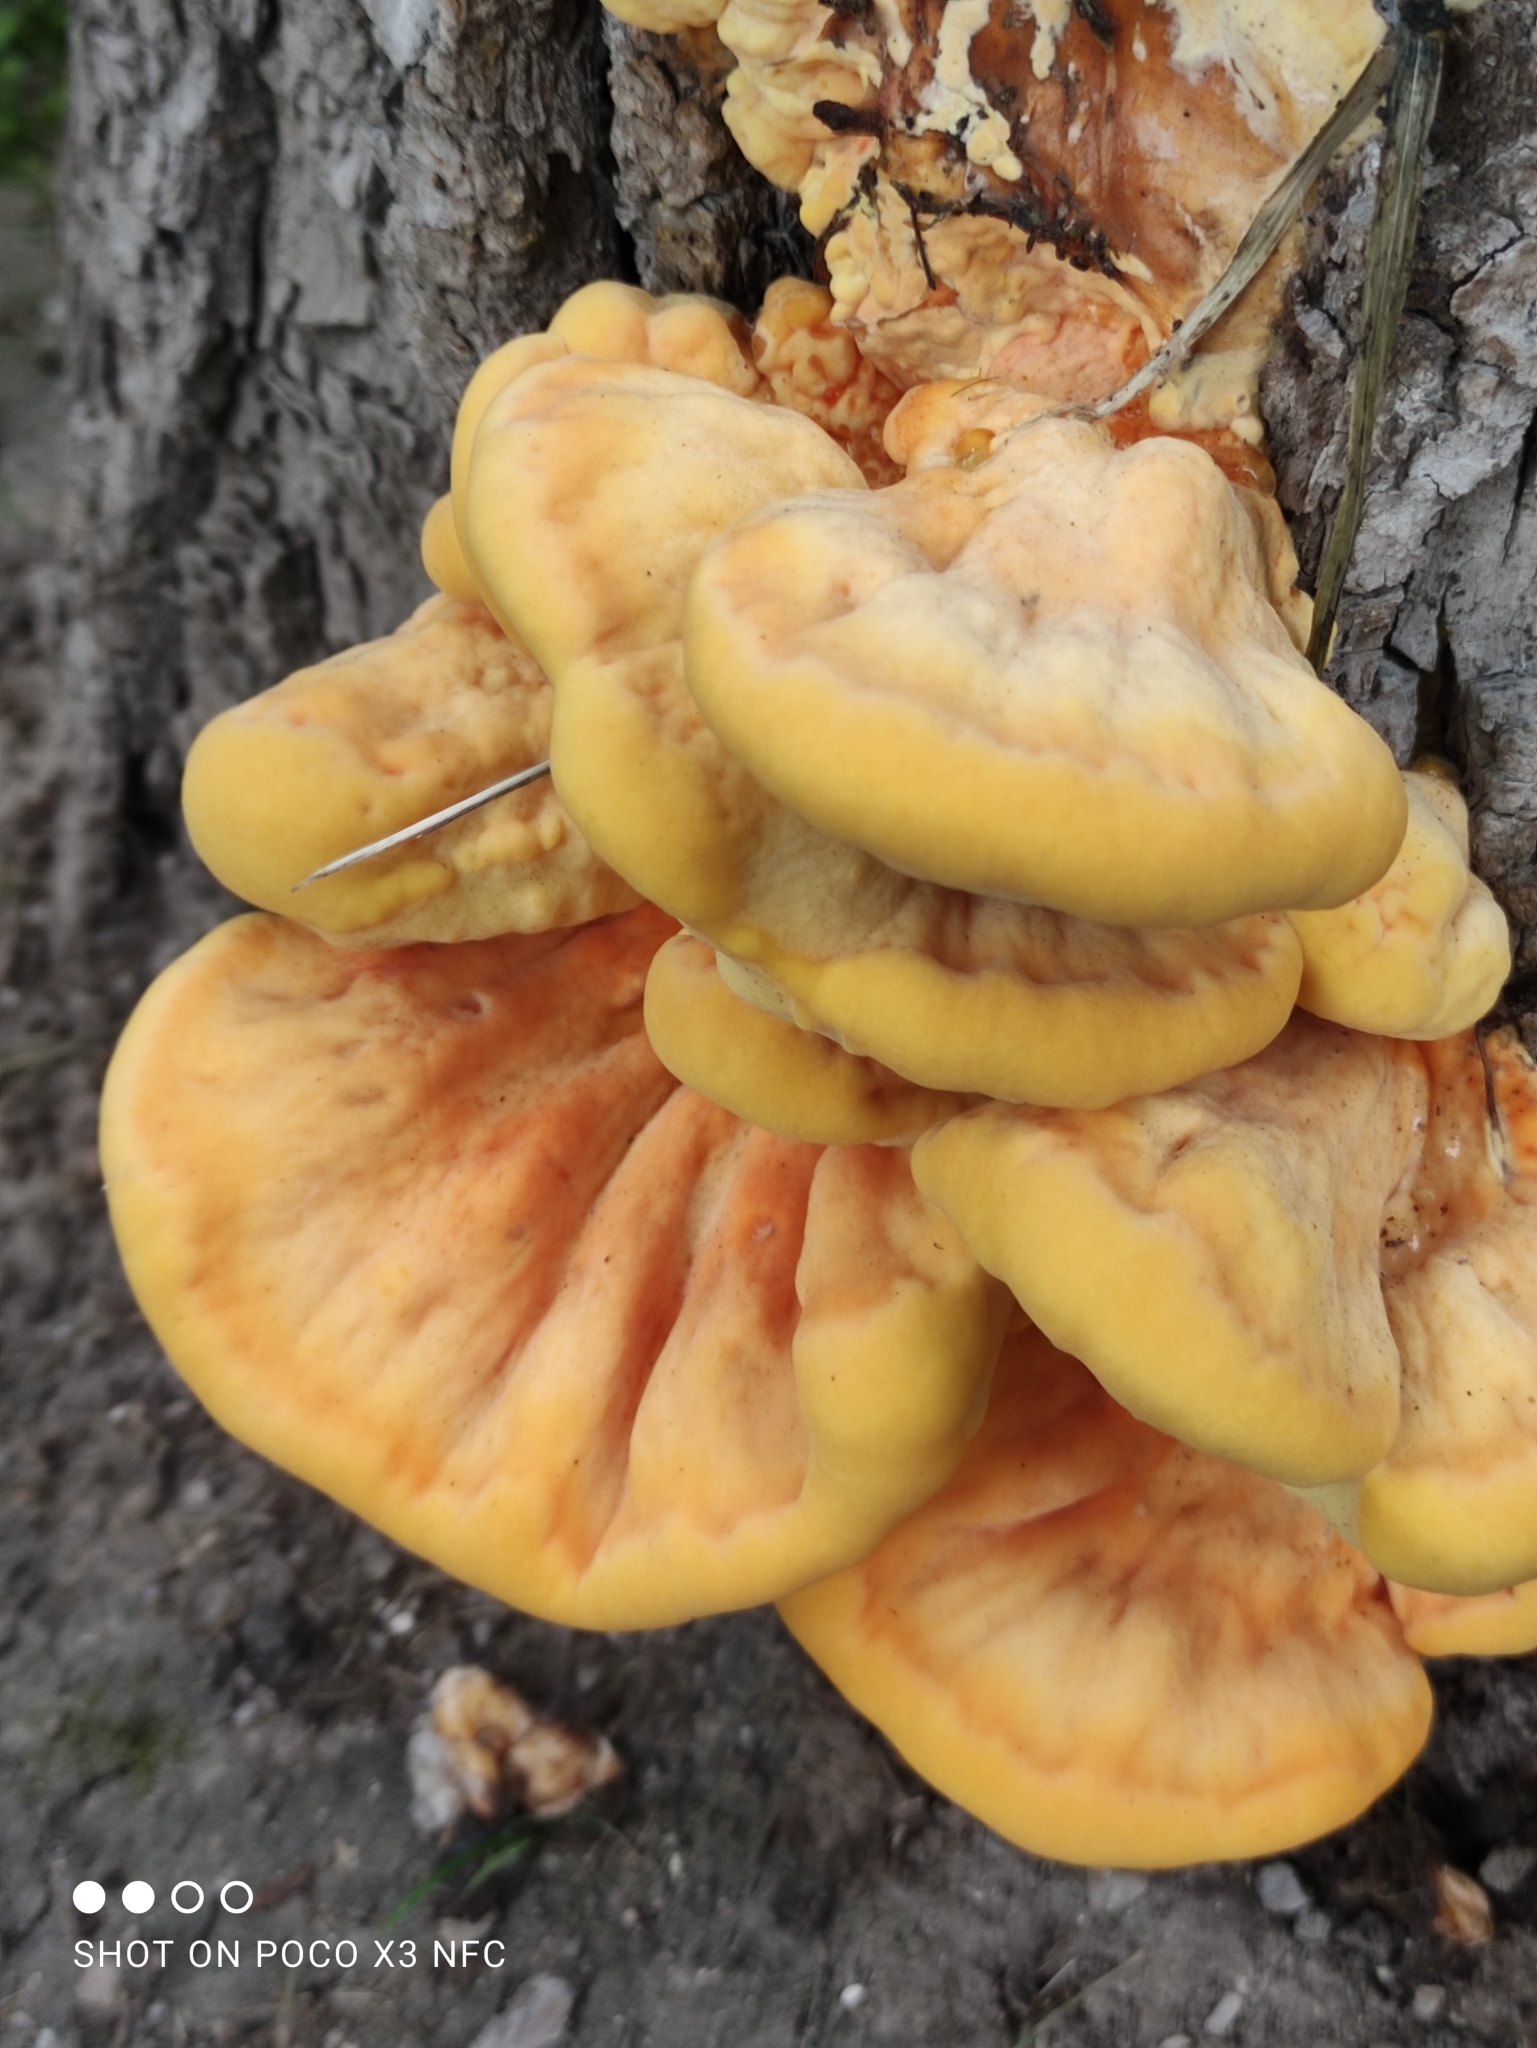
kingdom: Fungi
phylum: Basidiomycota
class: Agaricomycetes
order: Polyporales
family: Laetiporaceae
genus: Laetiporus
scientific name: Laetiporus sulphureus
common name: Chicken of the woods
